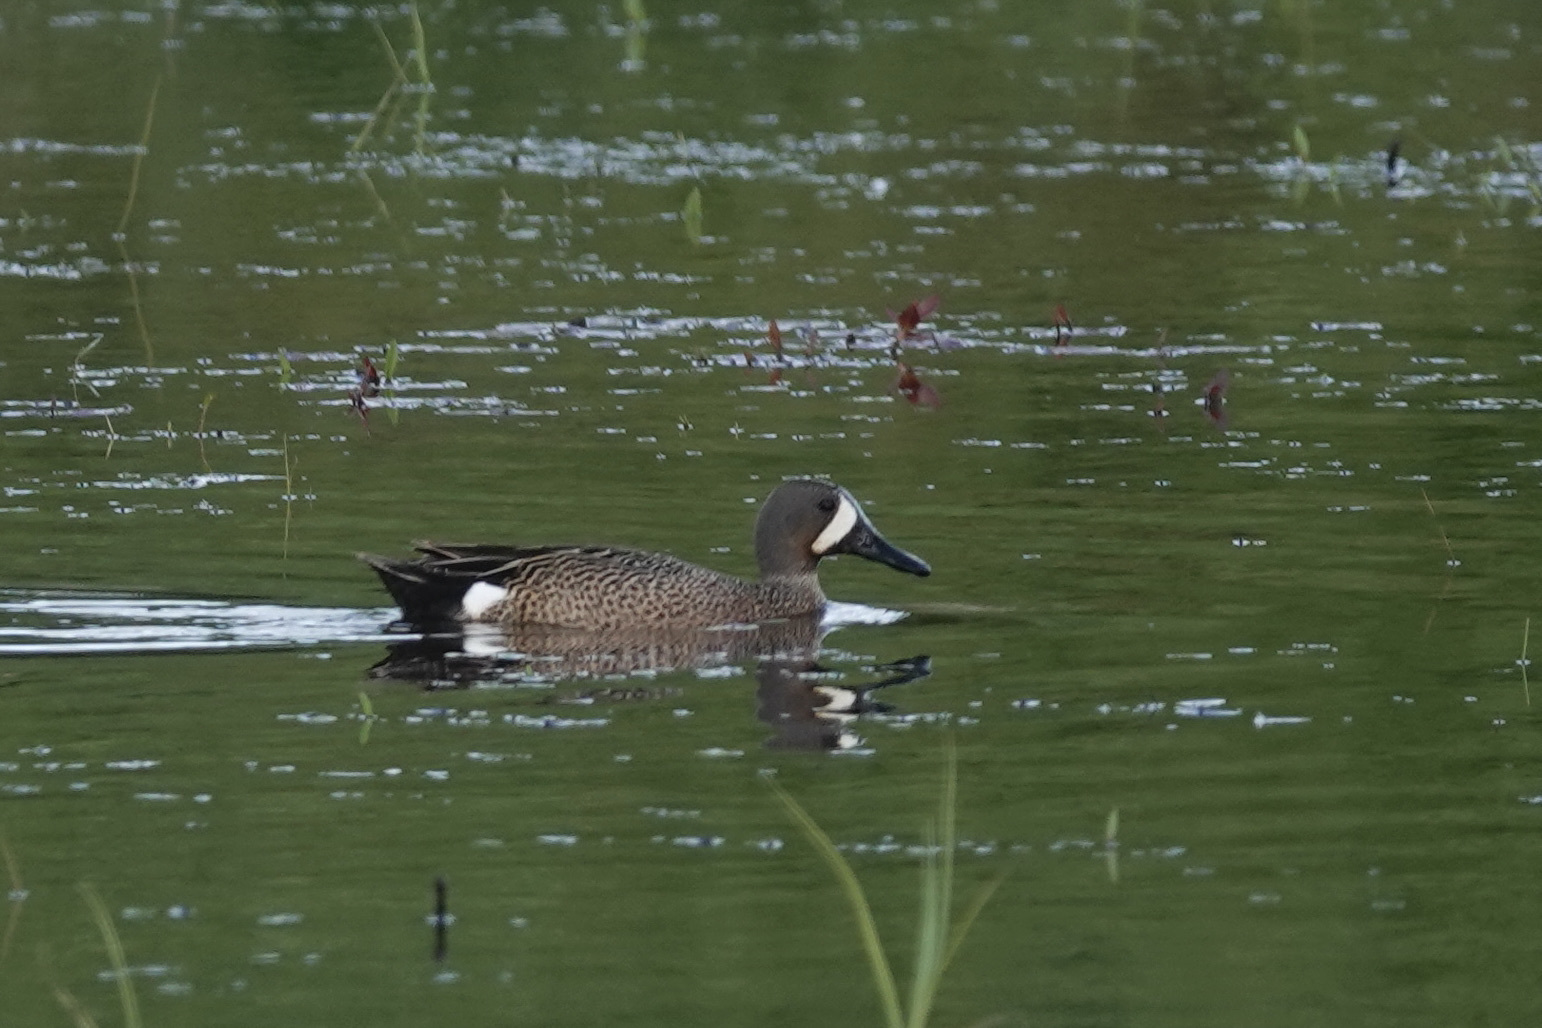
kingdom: Animalia
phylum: Chordata
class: Aves
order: Anseriformes
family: Anatidae
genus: Spatula
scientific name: Spatula discors
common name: Blue-winged teal
